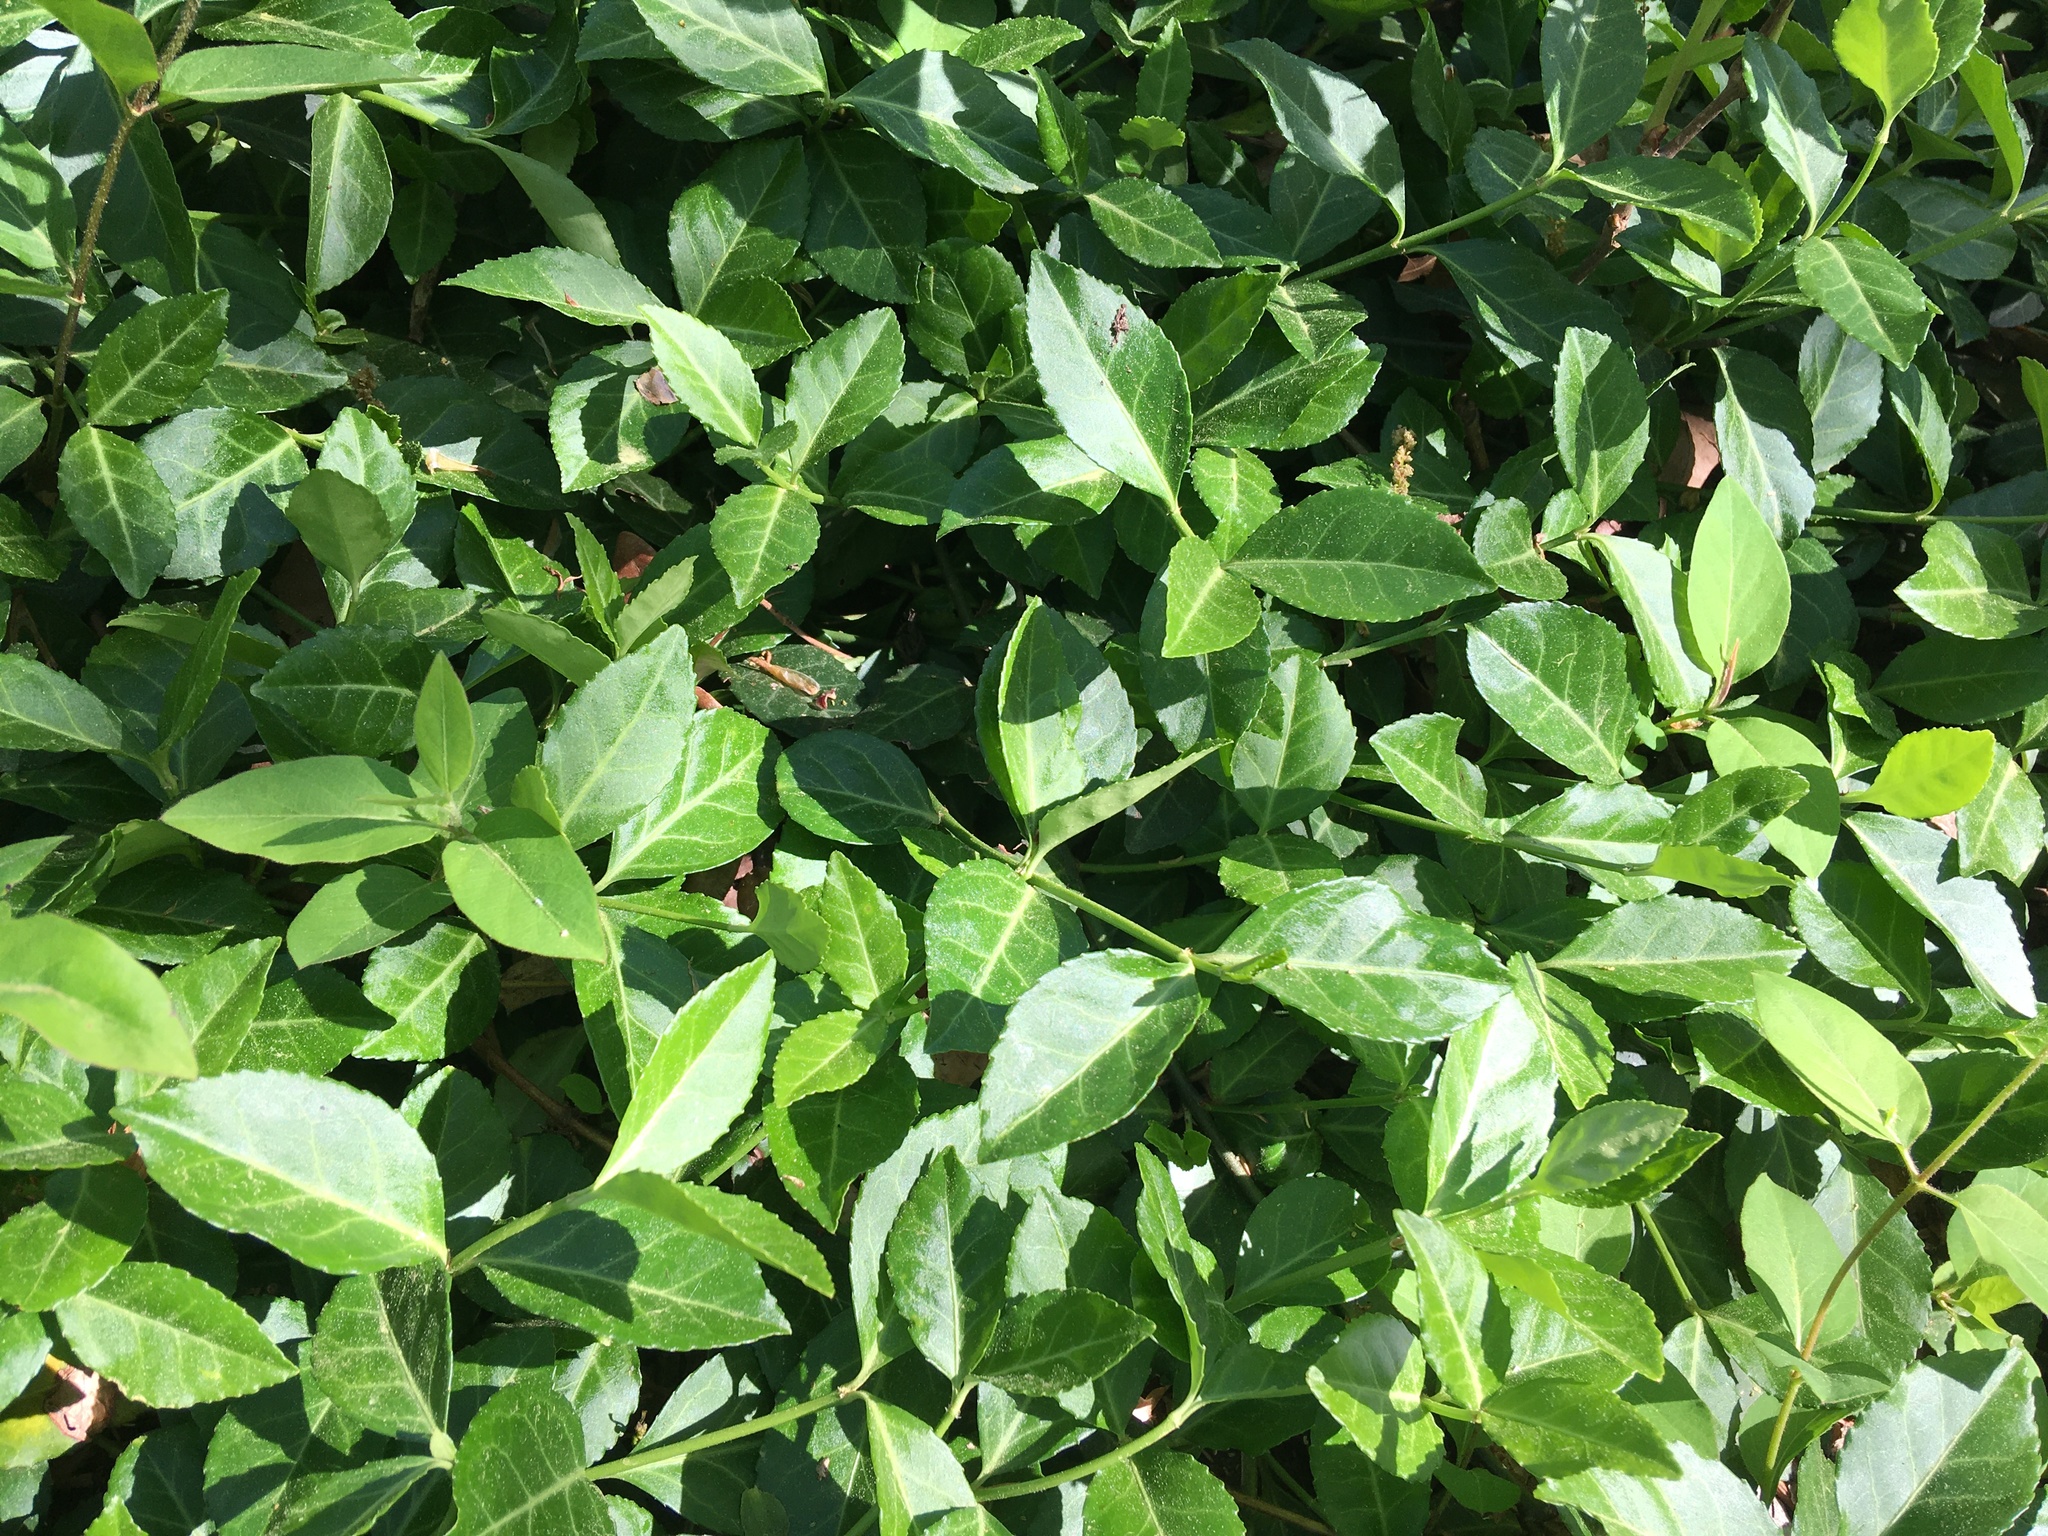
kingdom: Plantae
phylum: Tracheophyta
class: Magnoliopsida
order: Celastrales
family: Celastraceae
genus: Euonymus
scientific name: Euonymus fortunei
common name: Climbing euonymus
